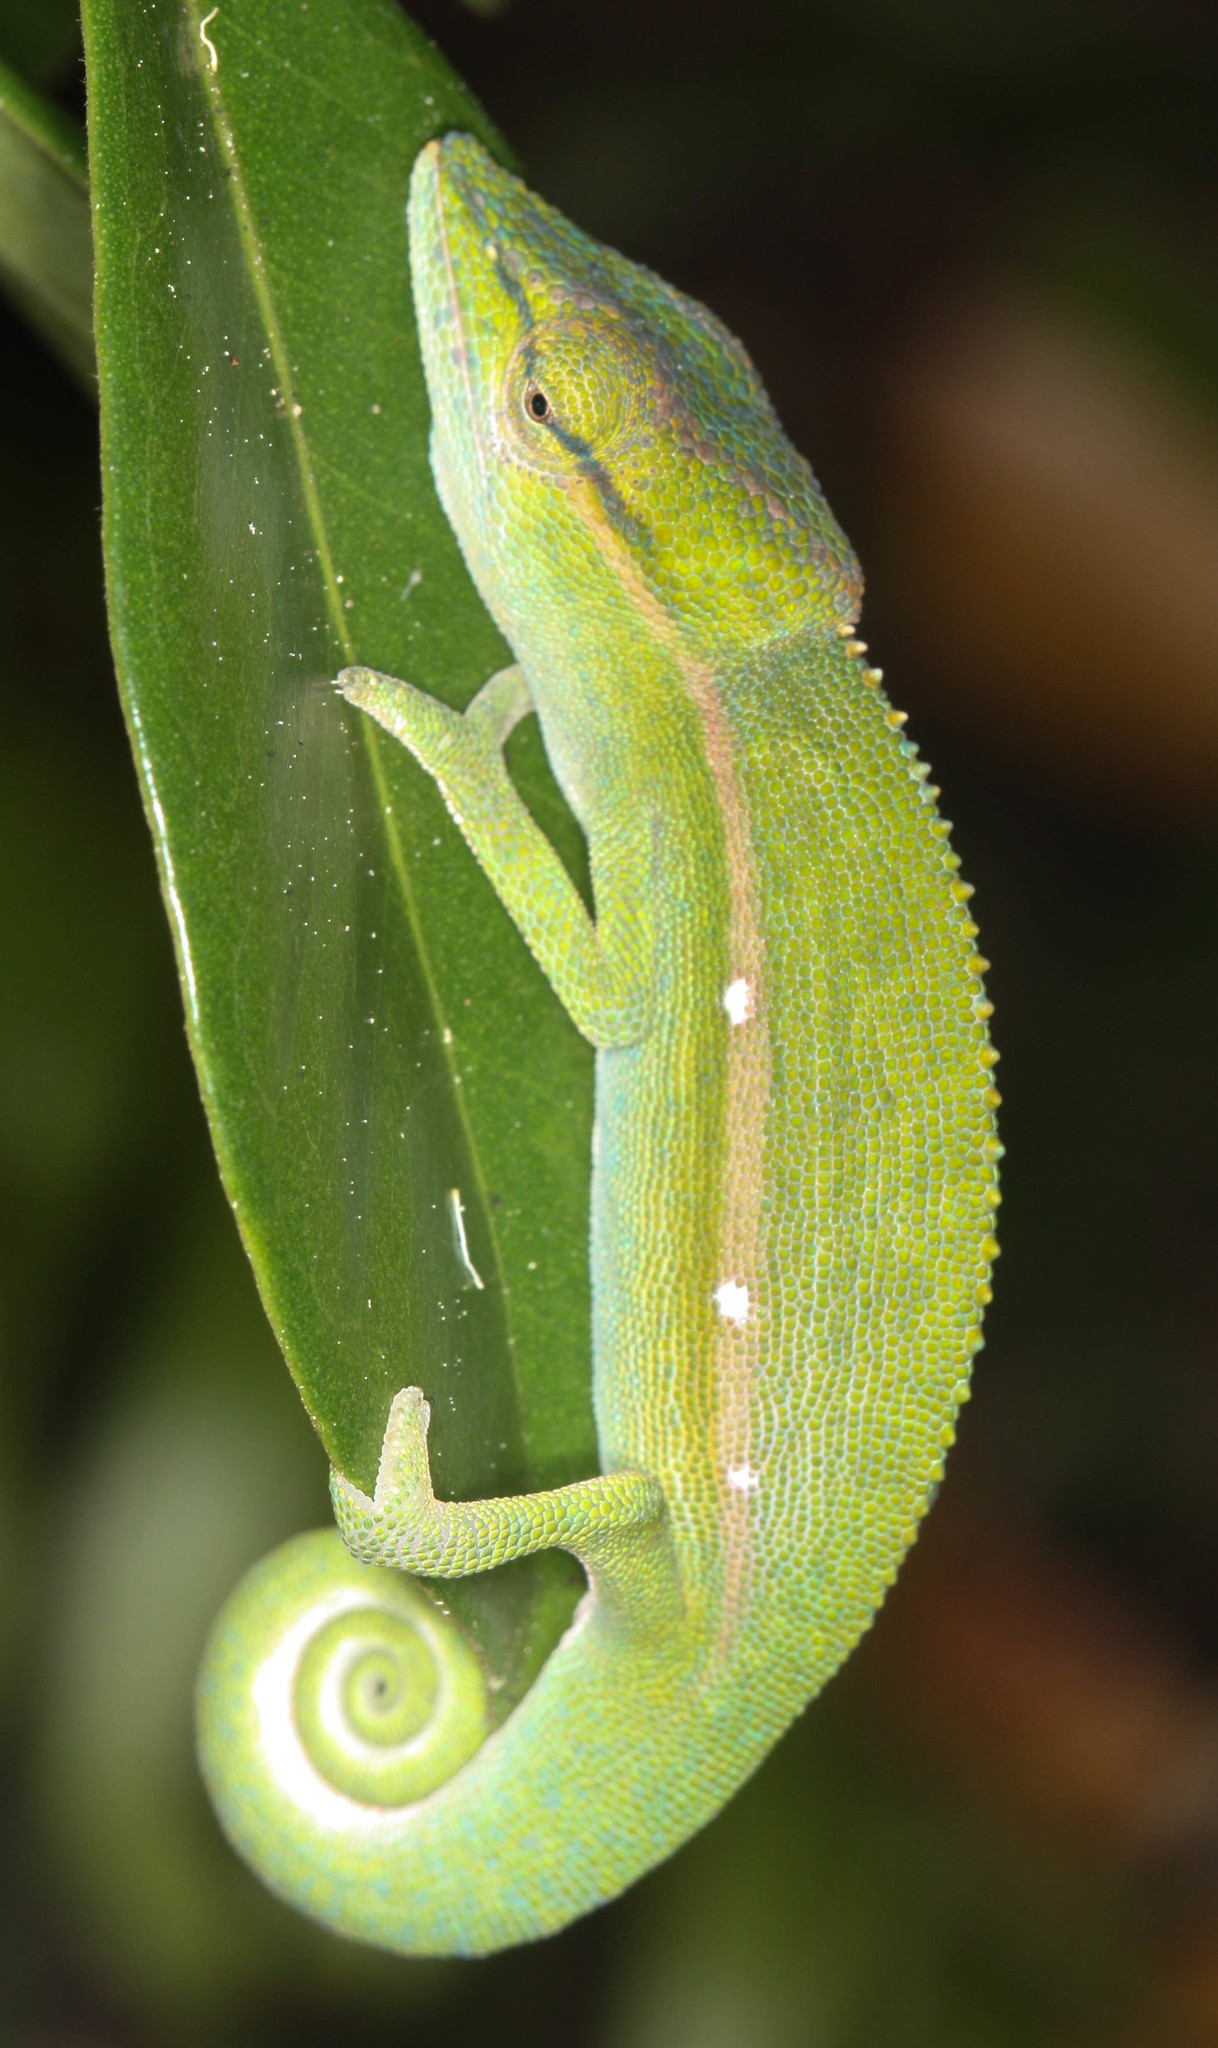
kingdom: Animalia
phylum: Chordata
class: Squamata
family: Chamaeleonidae
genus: Calumma
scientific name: Calumma gastrotaenia
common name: Short-nosed chameleon
